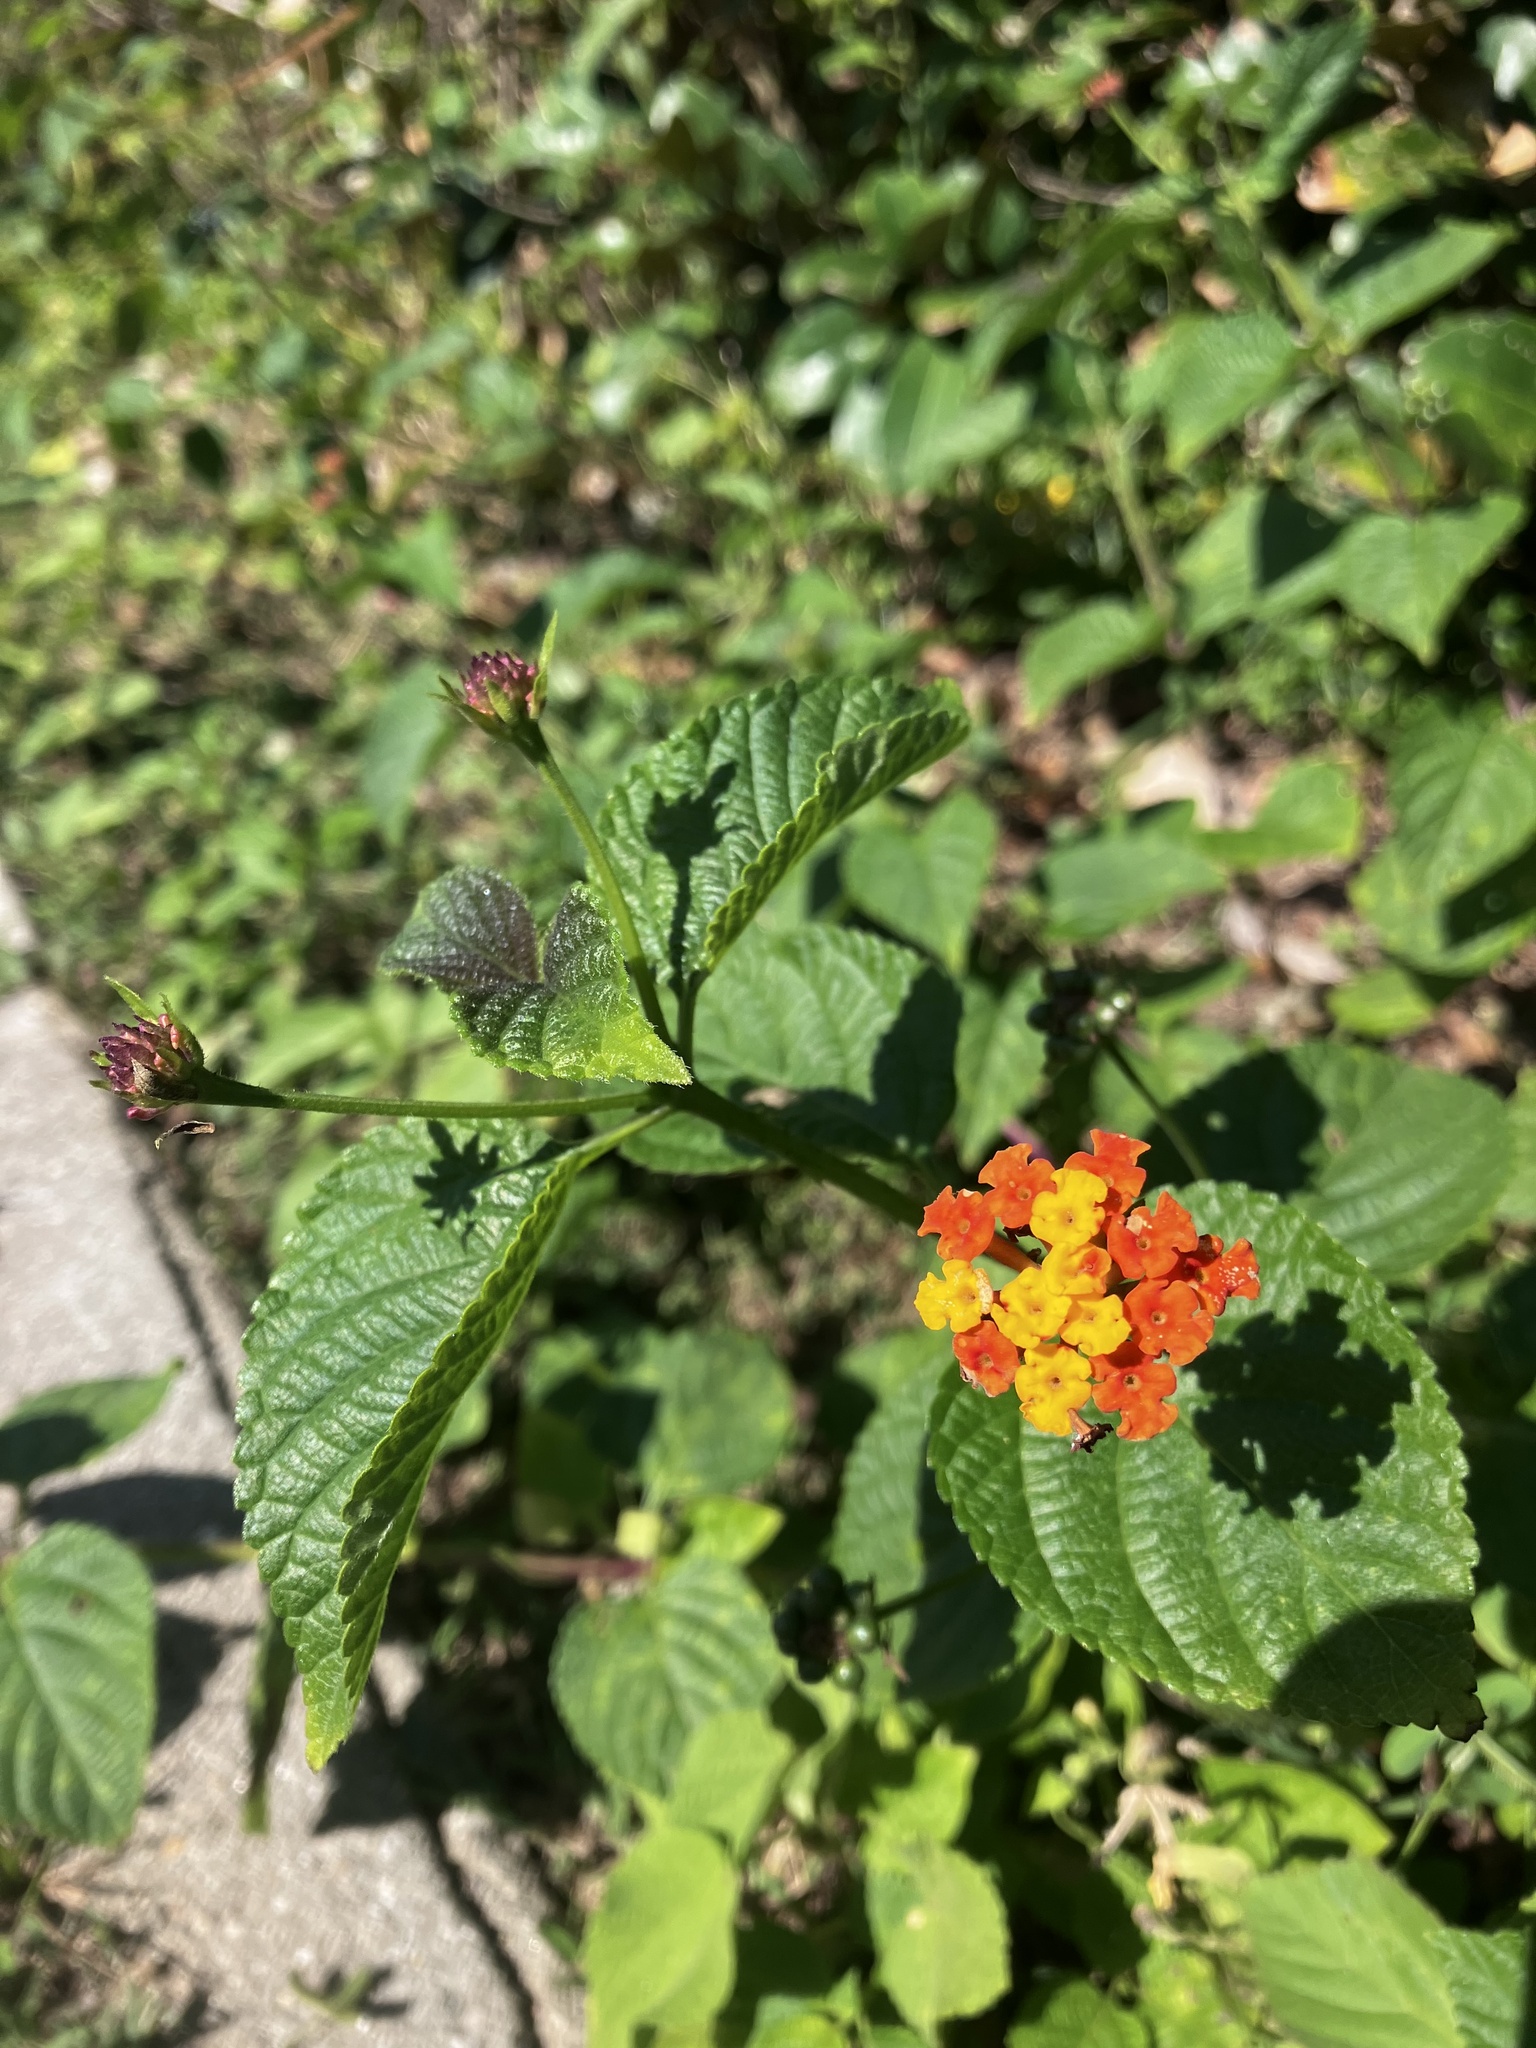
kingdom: Plantae
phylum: Tracheophyta
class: Magnoliopsida
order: Lamiales
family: Verbenaceae
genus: Lantana
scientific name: Lantana camara
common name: Lantana
